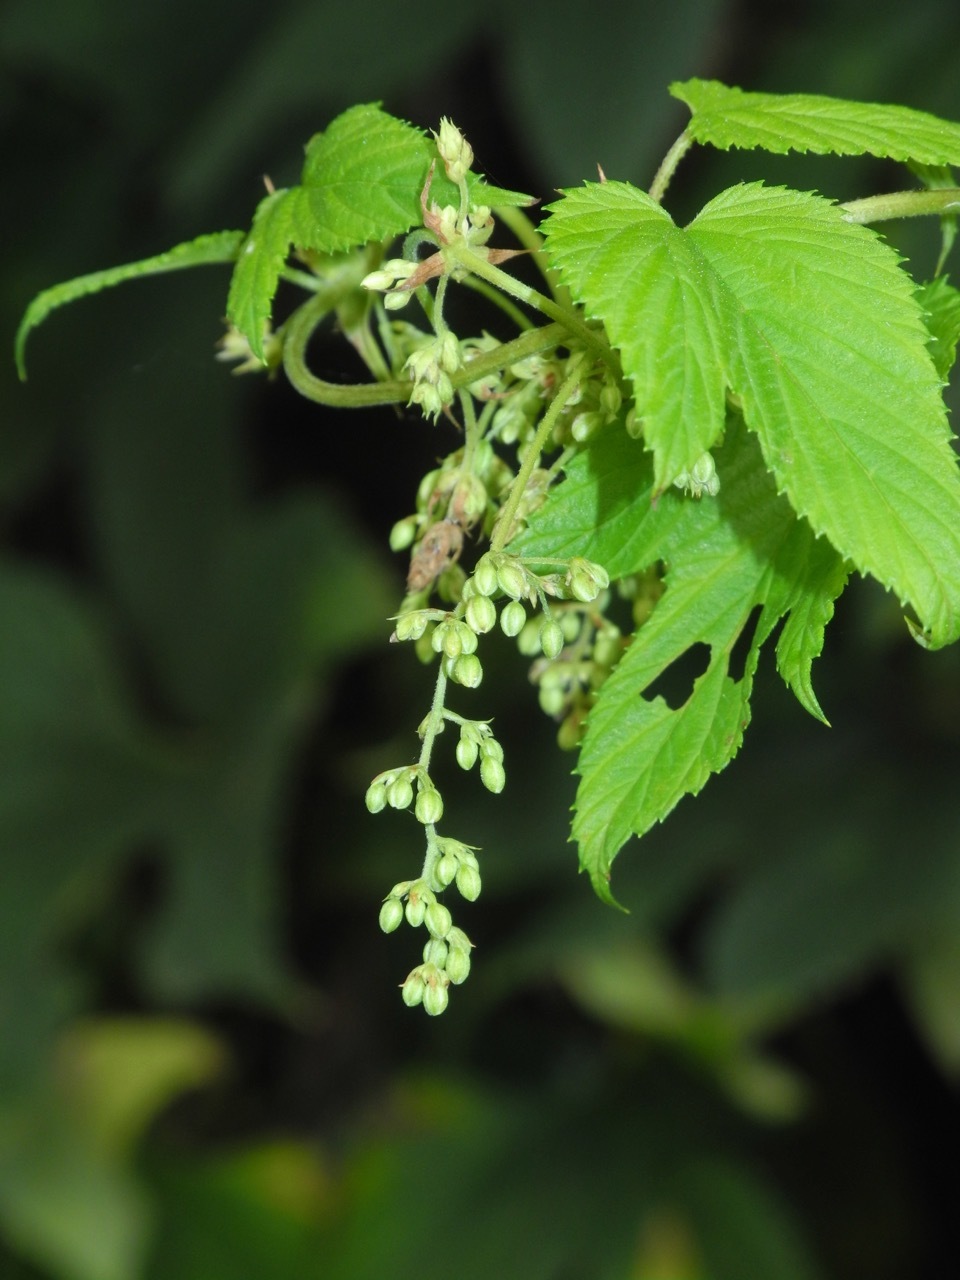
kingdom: Plantae
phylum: Tracheophyta
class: Magnoliopsida
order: Rosales
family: Cannabaceae
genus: Humulus
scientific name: Humulus lupulus
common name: Hop
